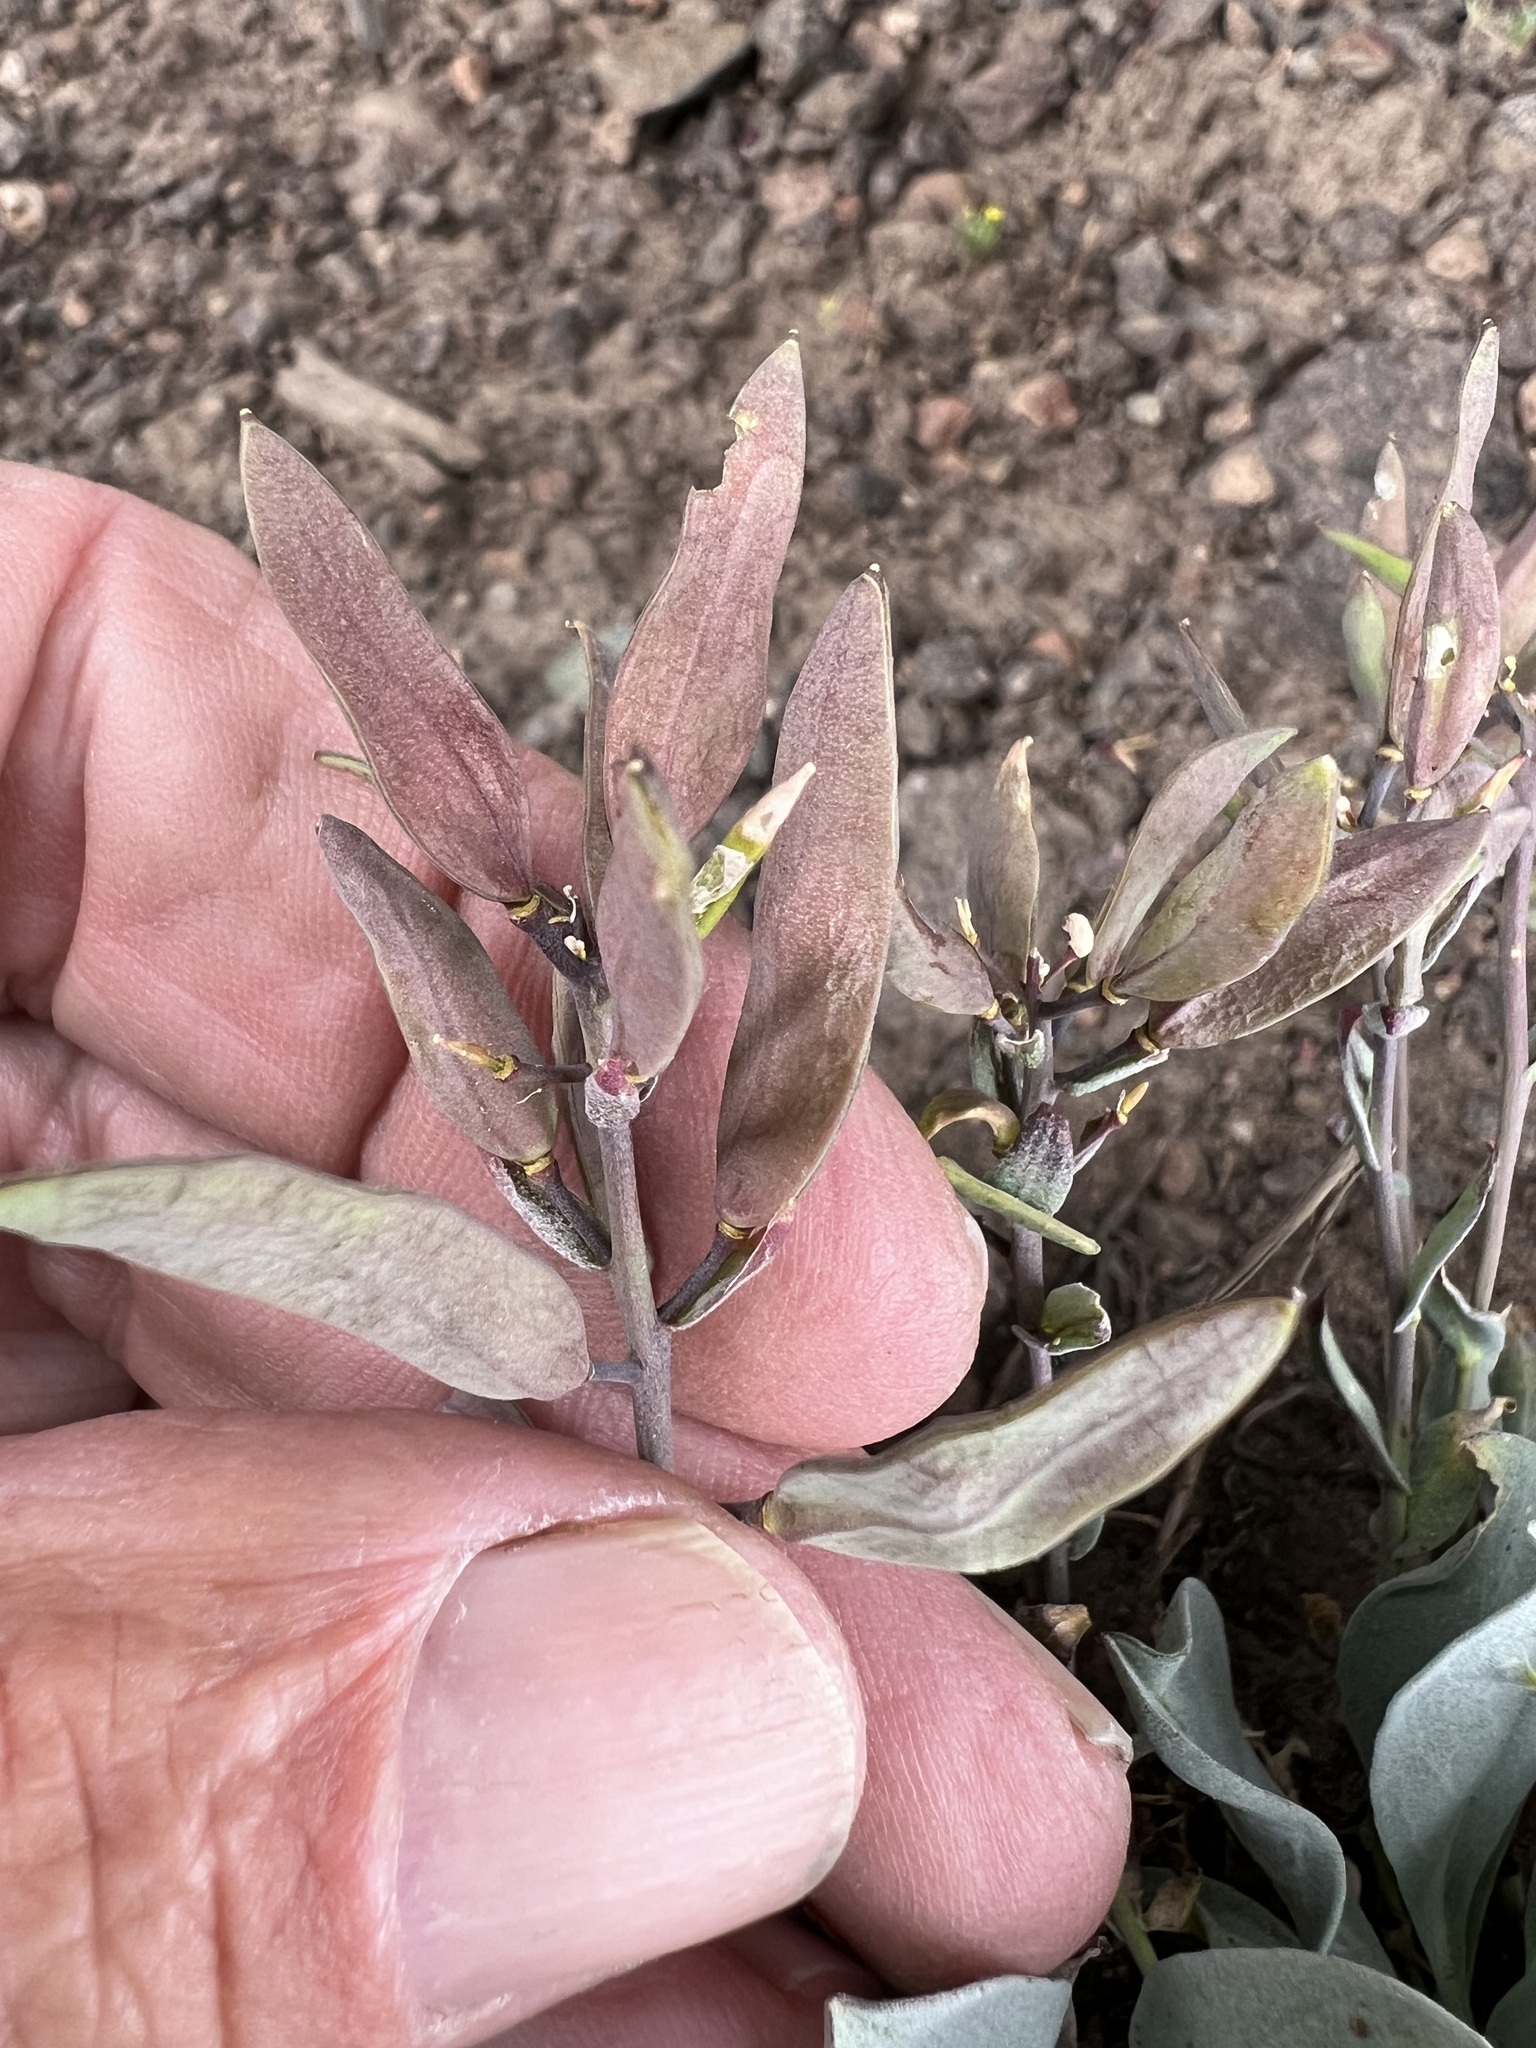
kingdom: Plantae
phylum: Tracheophyta
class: Magnoliopsida
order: Brassicales
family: Brassicaceae
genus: Phoenicaulis
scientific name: Phoenicaulis cheiranthoides
